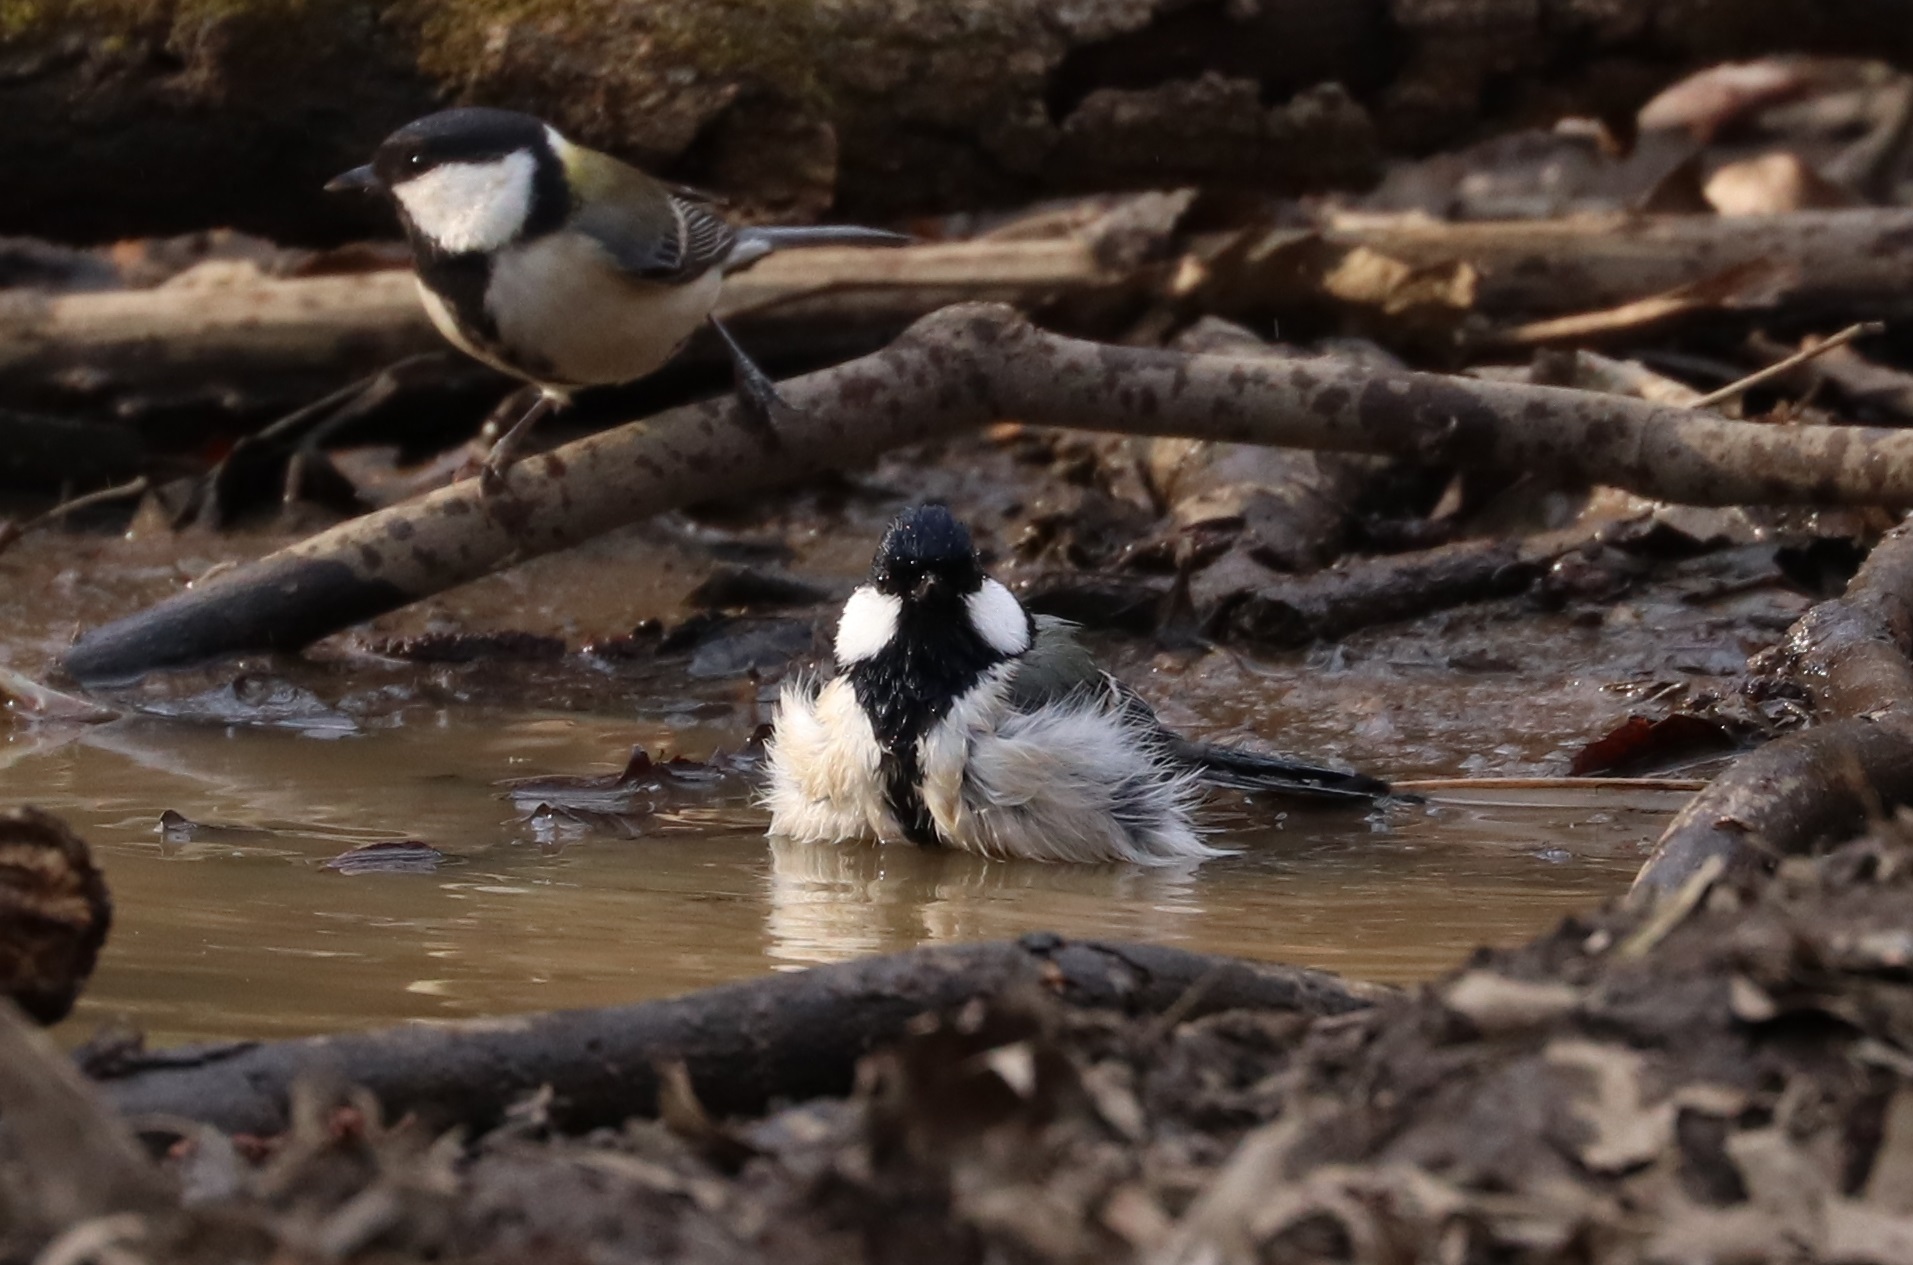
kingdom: Animalia
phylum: Chordata
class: Aves
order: Passeriformes
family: Paridae
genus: Parus
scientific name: Parus minor
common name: Japanese tit
